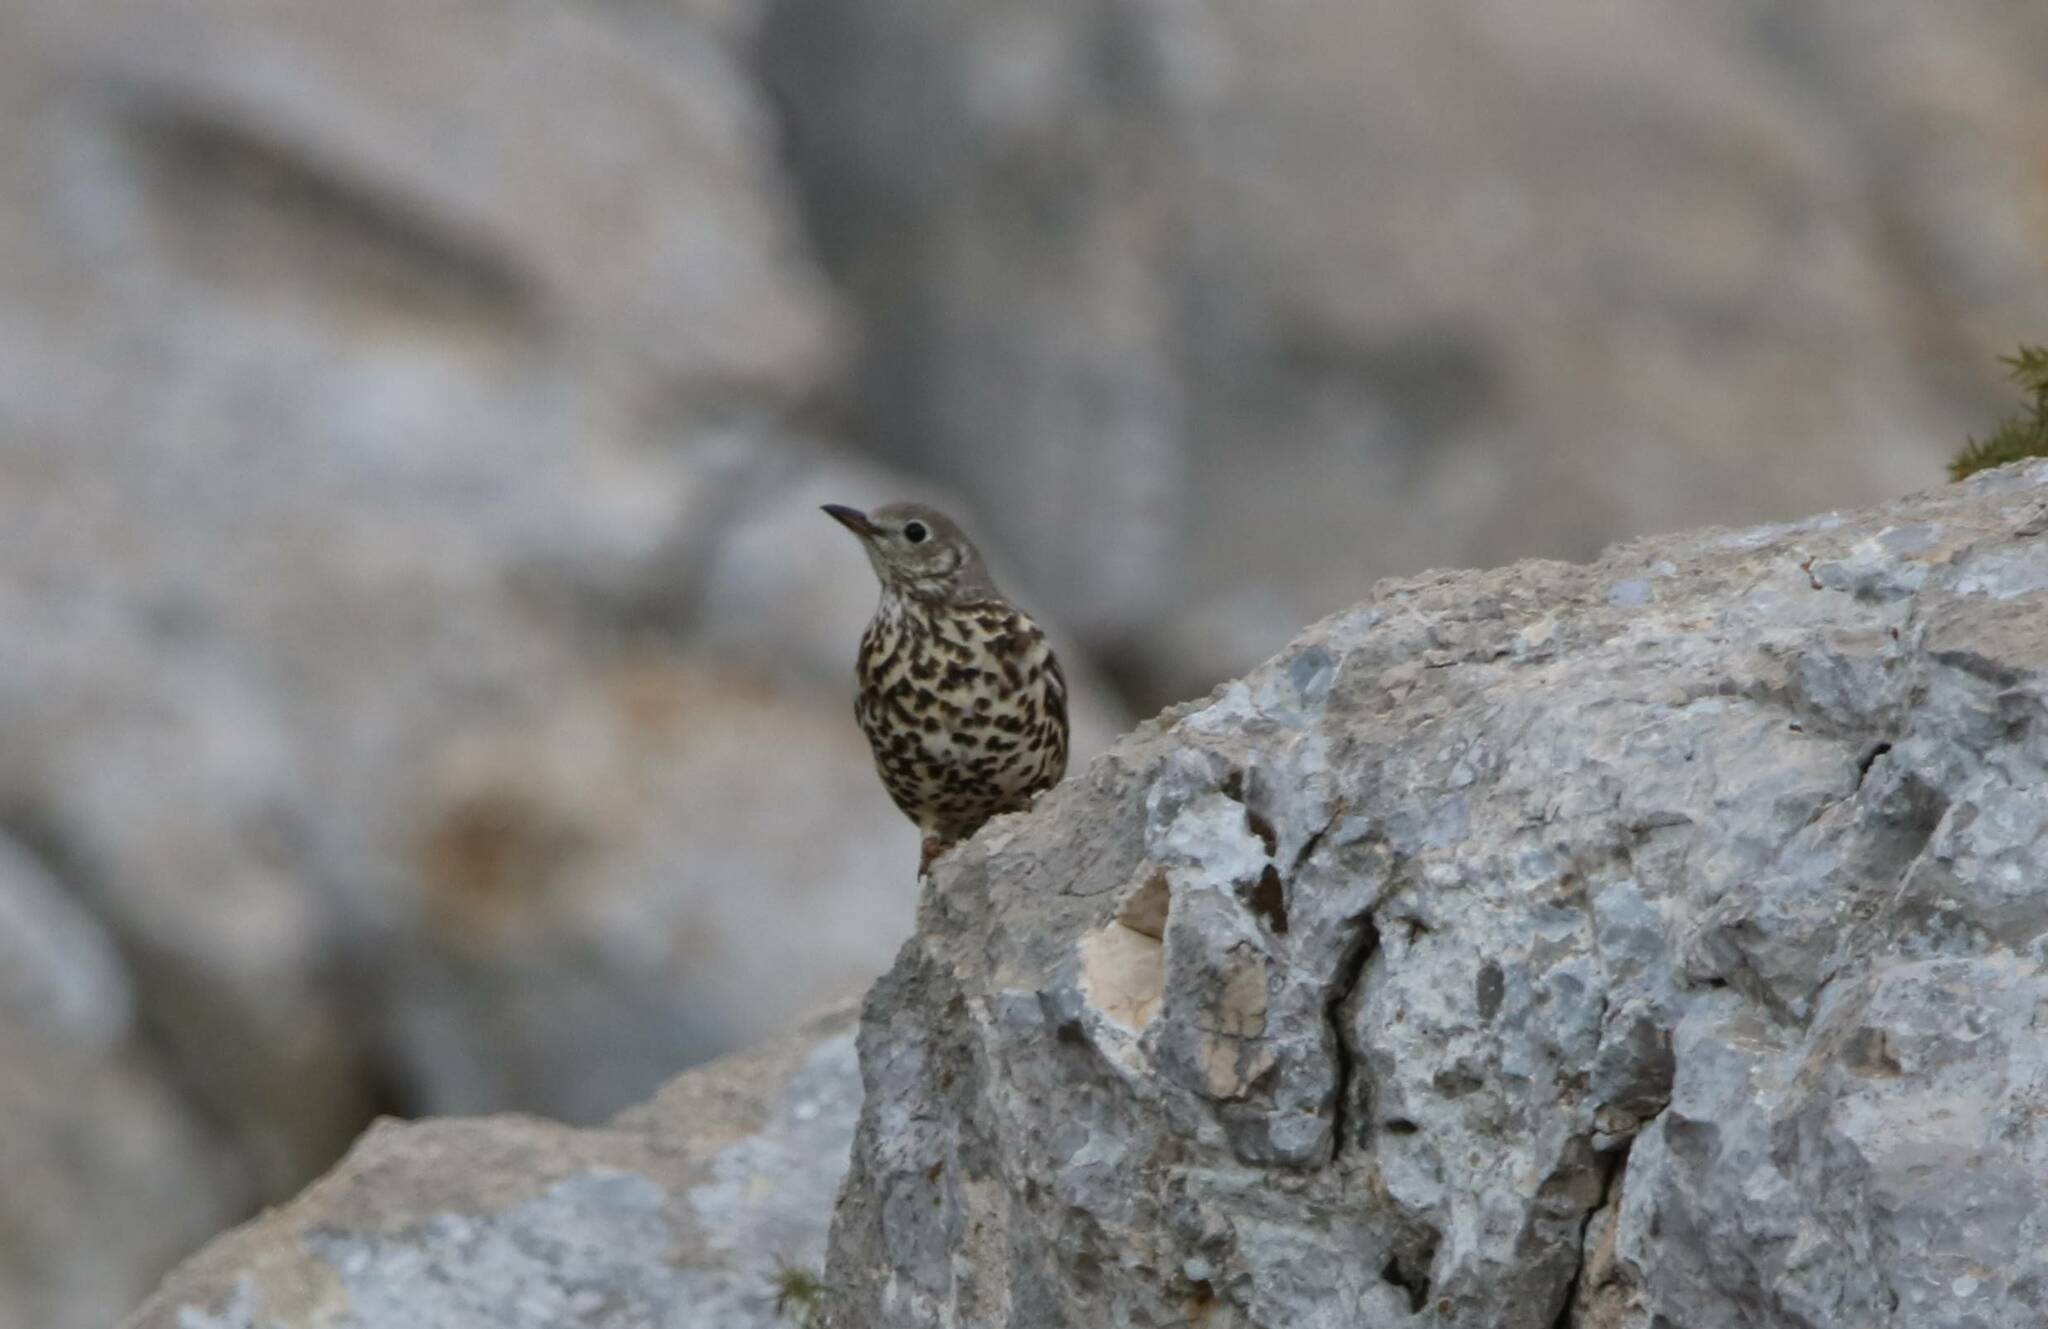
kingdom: Animalia
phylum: Chordata
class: Aves
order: Passeriformes
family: Turdidae
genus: Turdus
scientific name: Turdus viscivorus
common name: Mistle thrush
